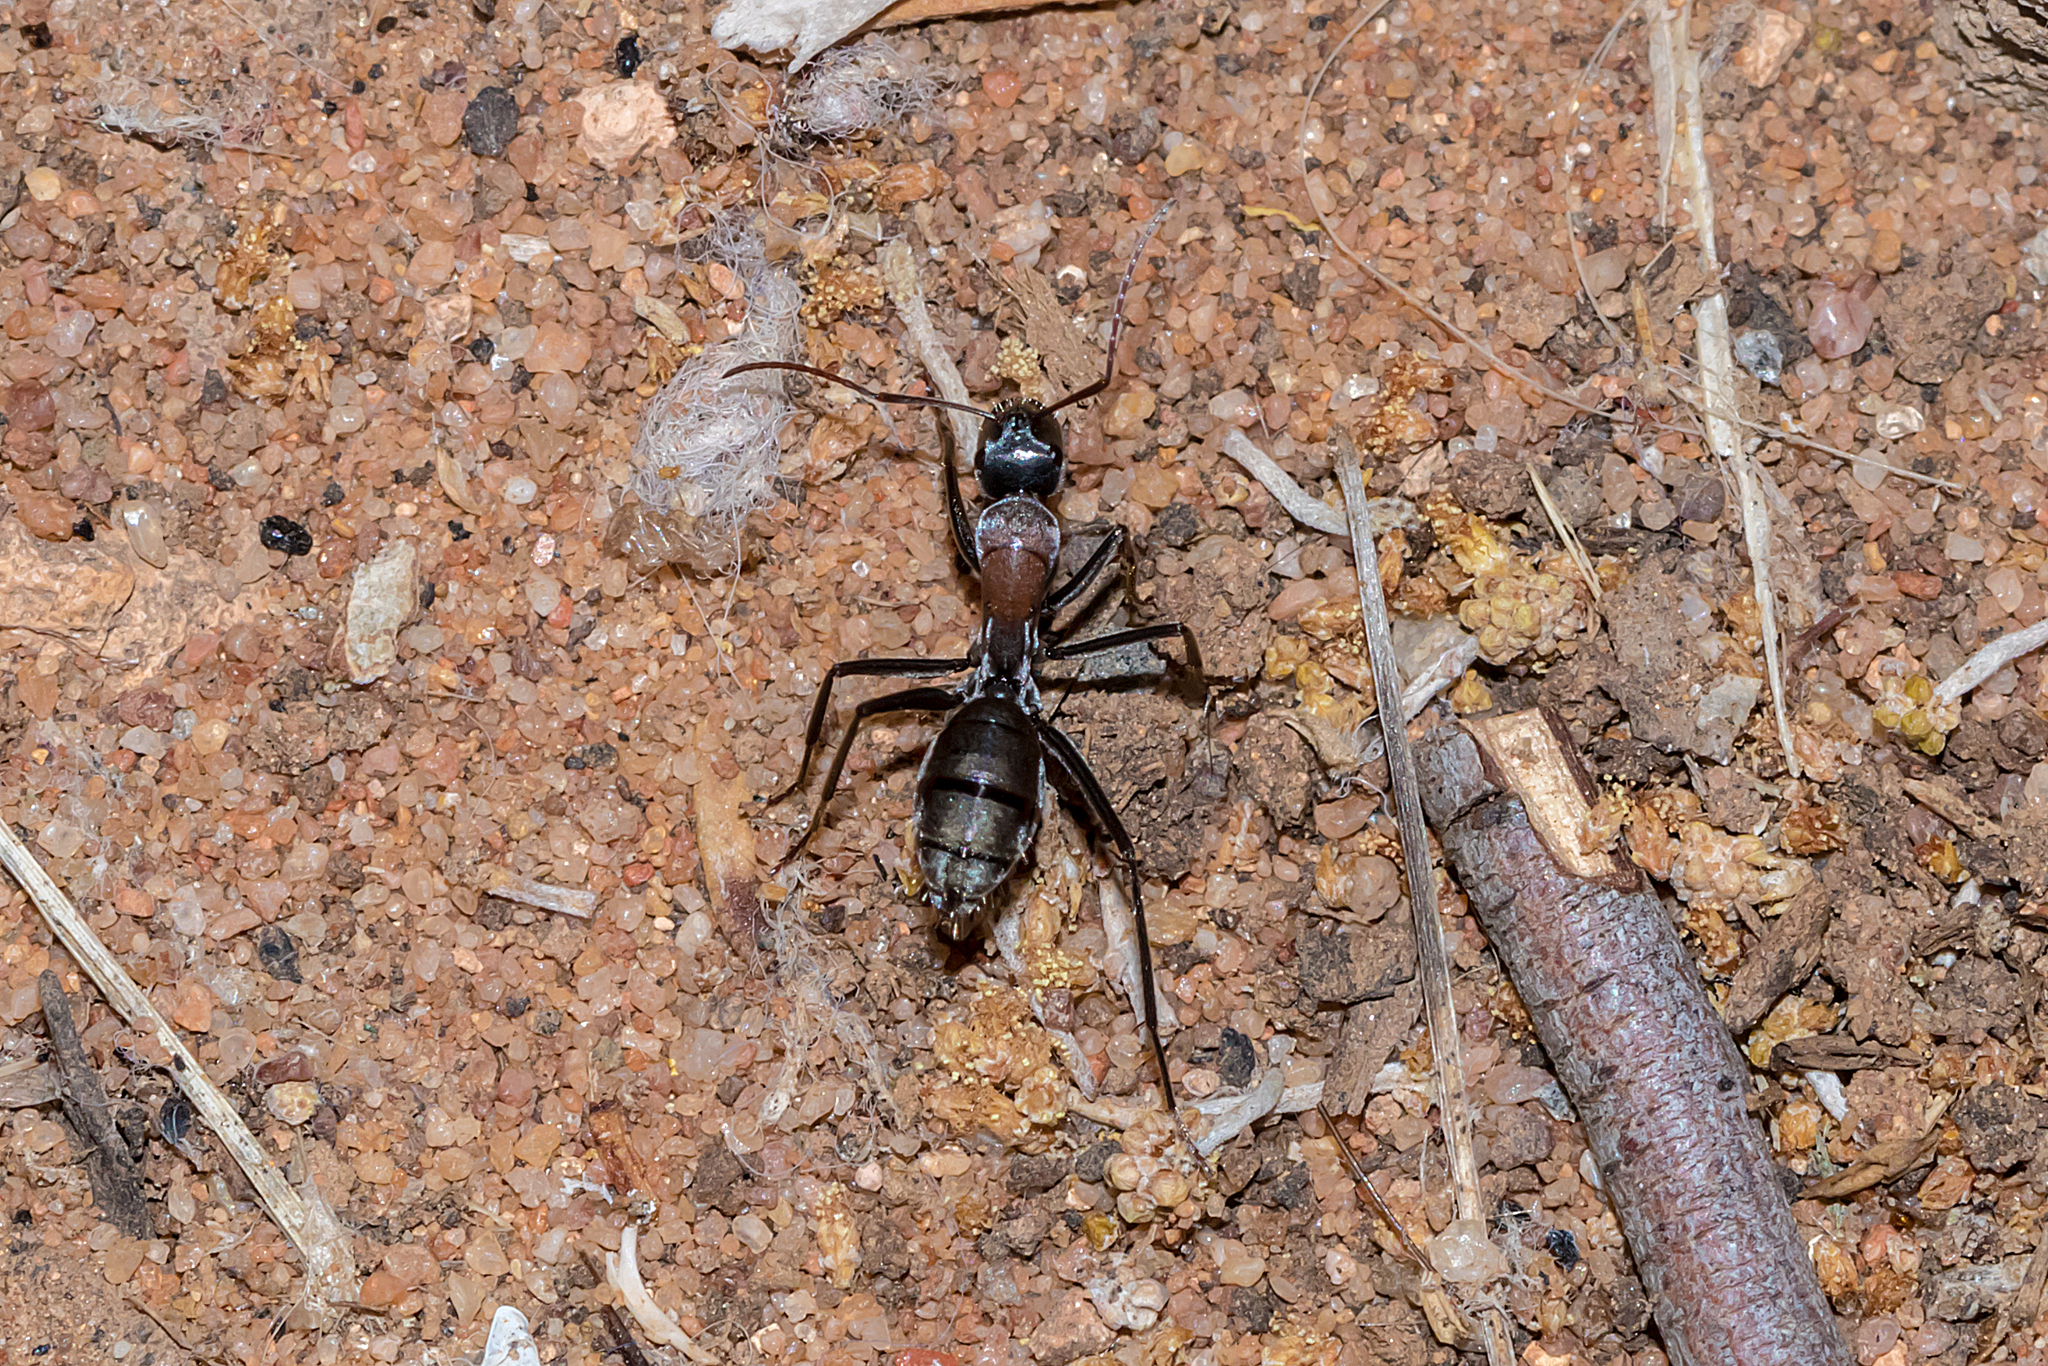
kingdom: Animalia
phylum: Arthropoda
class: Insecta
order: Hymenoptera
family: Formicidae
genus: Camponotus
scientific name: Camponotus ephippium
